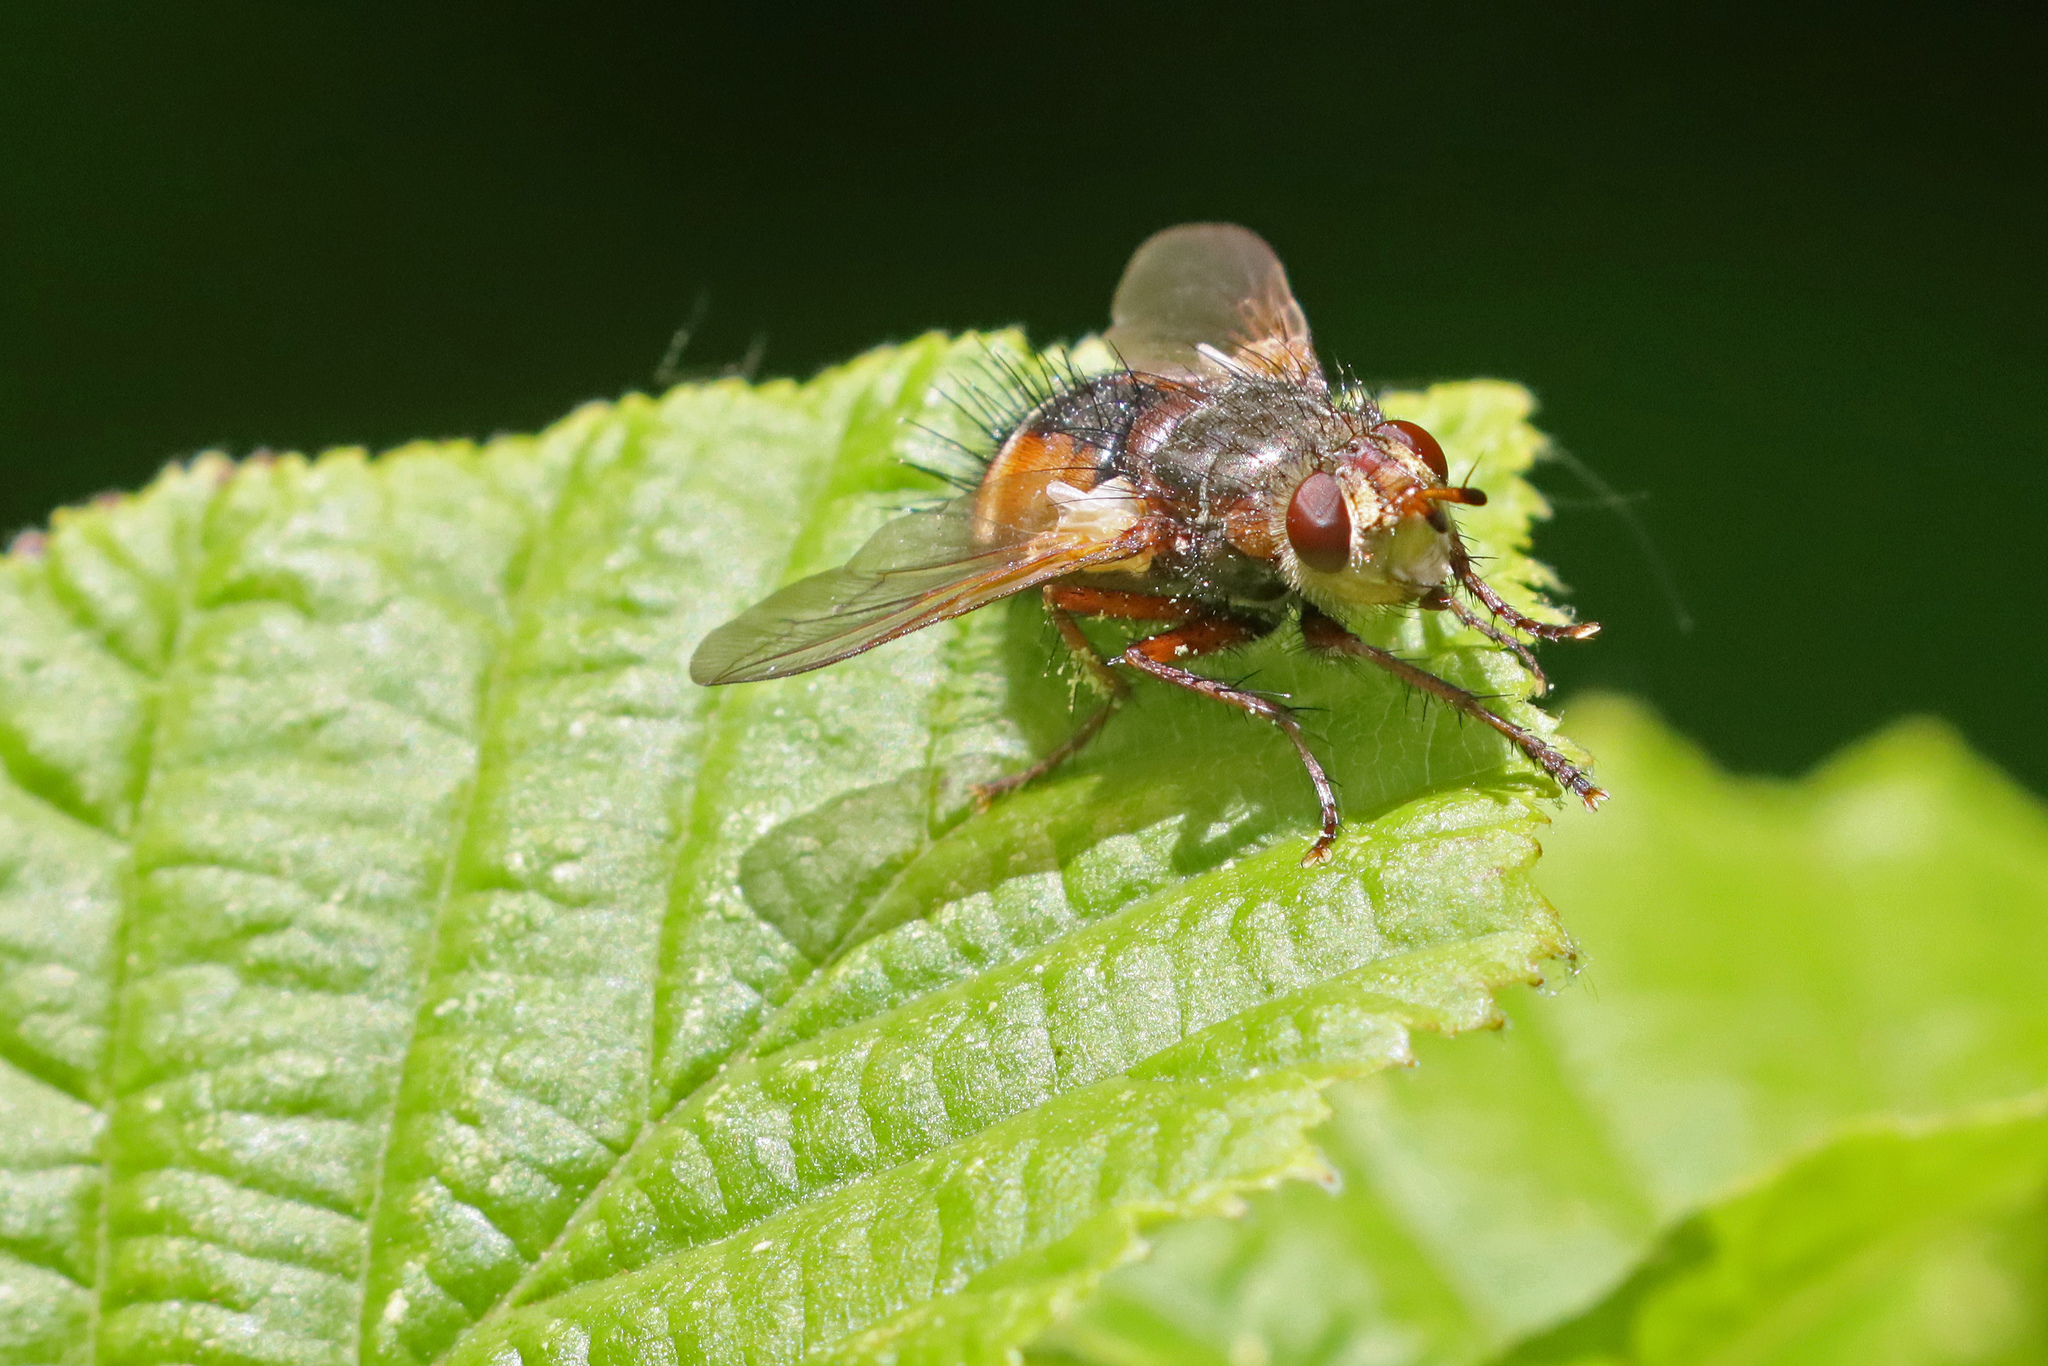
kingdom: Animalia
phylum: Arthropoda
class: Insecta
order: Diptera
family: Tachinidae
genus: Tachina
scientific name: Tachina fera
